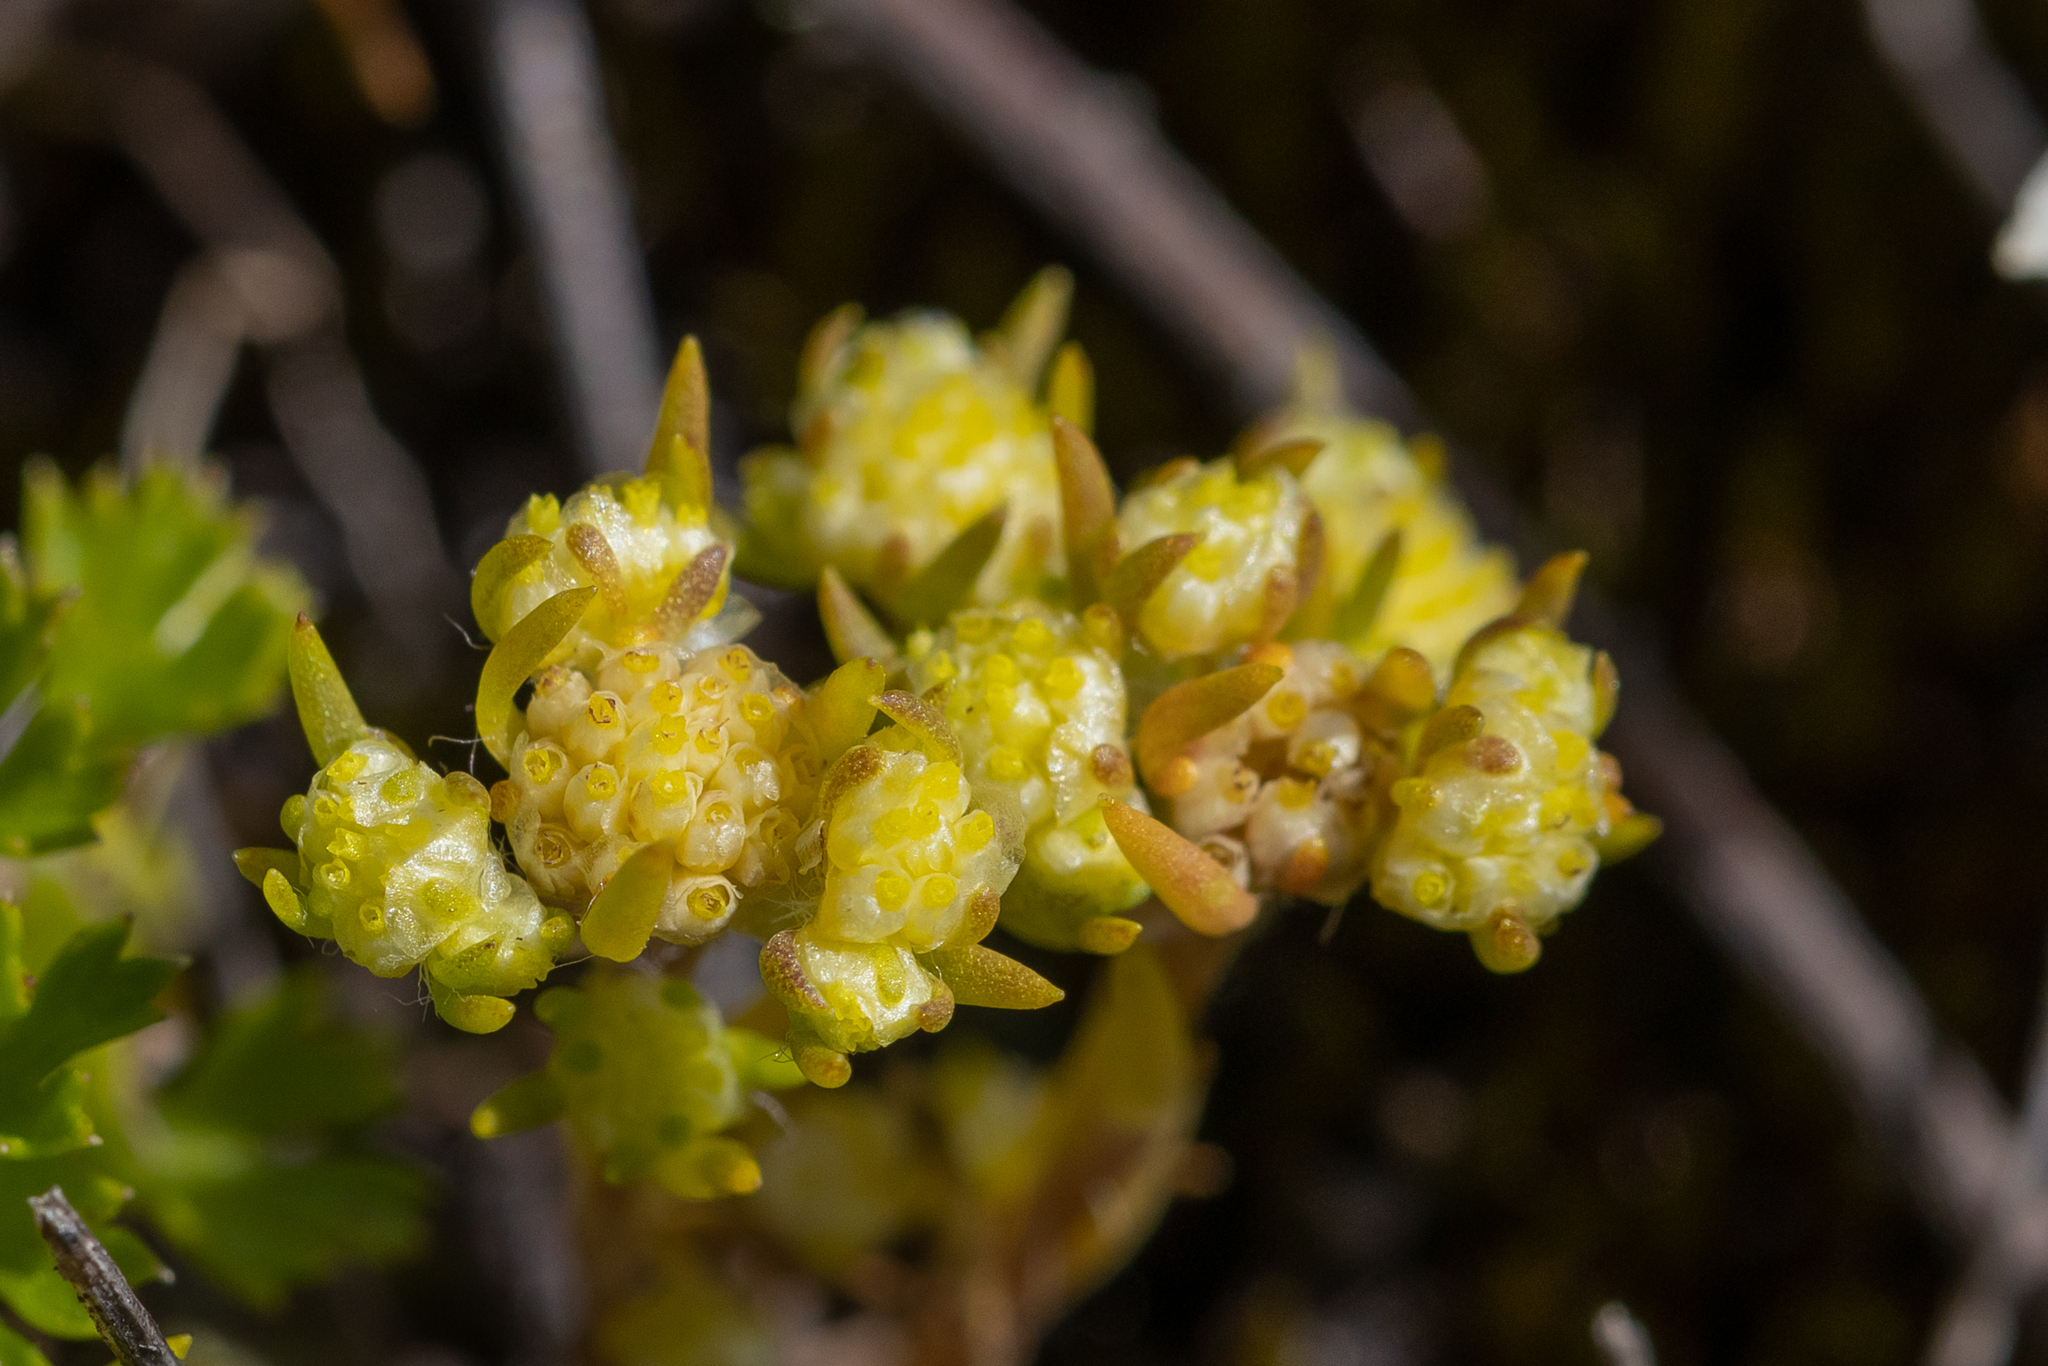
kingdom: Plantae
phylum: Tracheophyta
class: Magnoliopsida
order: Asterales
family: Asteraceae
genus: Siloxerus
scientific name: Siloxerus multiflorus
